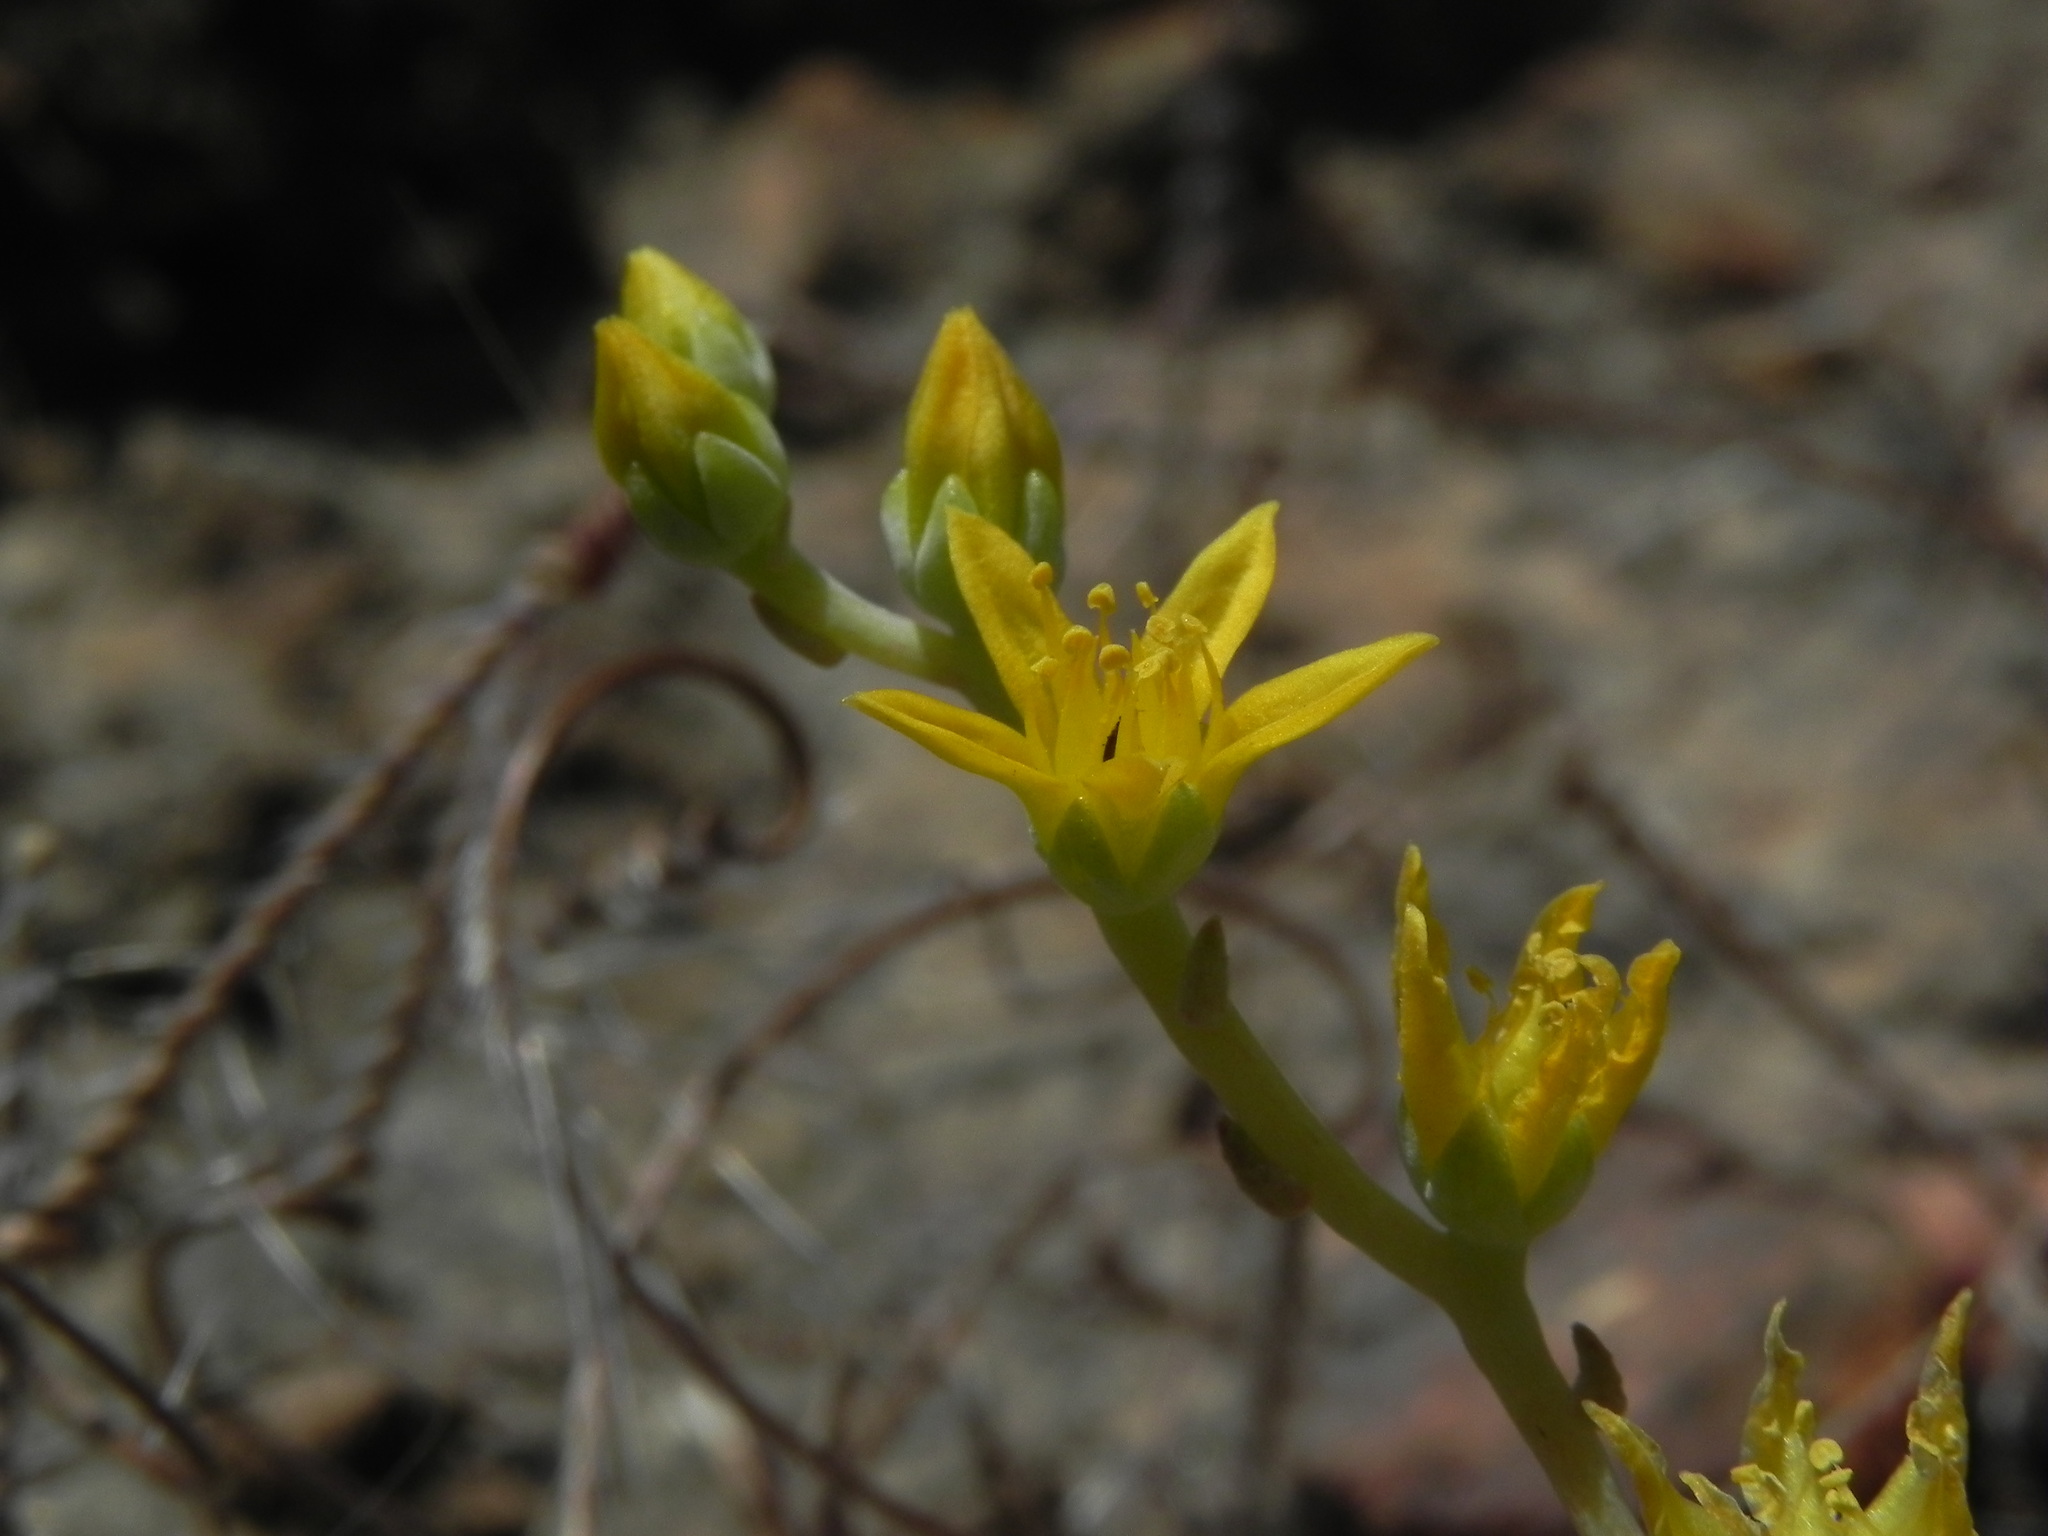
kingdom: Plantae
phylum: Tracheophyta
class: Magnoliopsida
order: Saxifragales
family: Crassulaceae
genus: Dudleya
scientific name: Dudleya variegata
